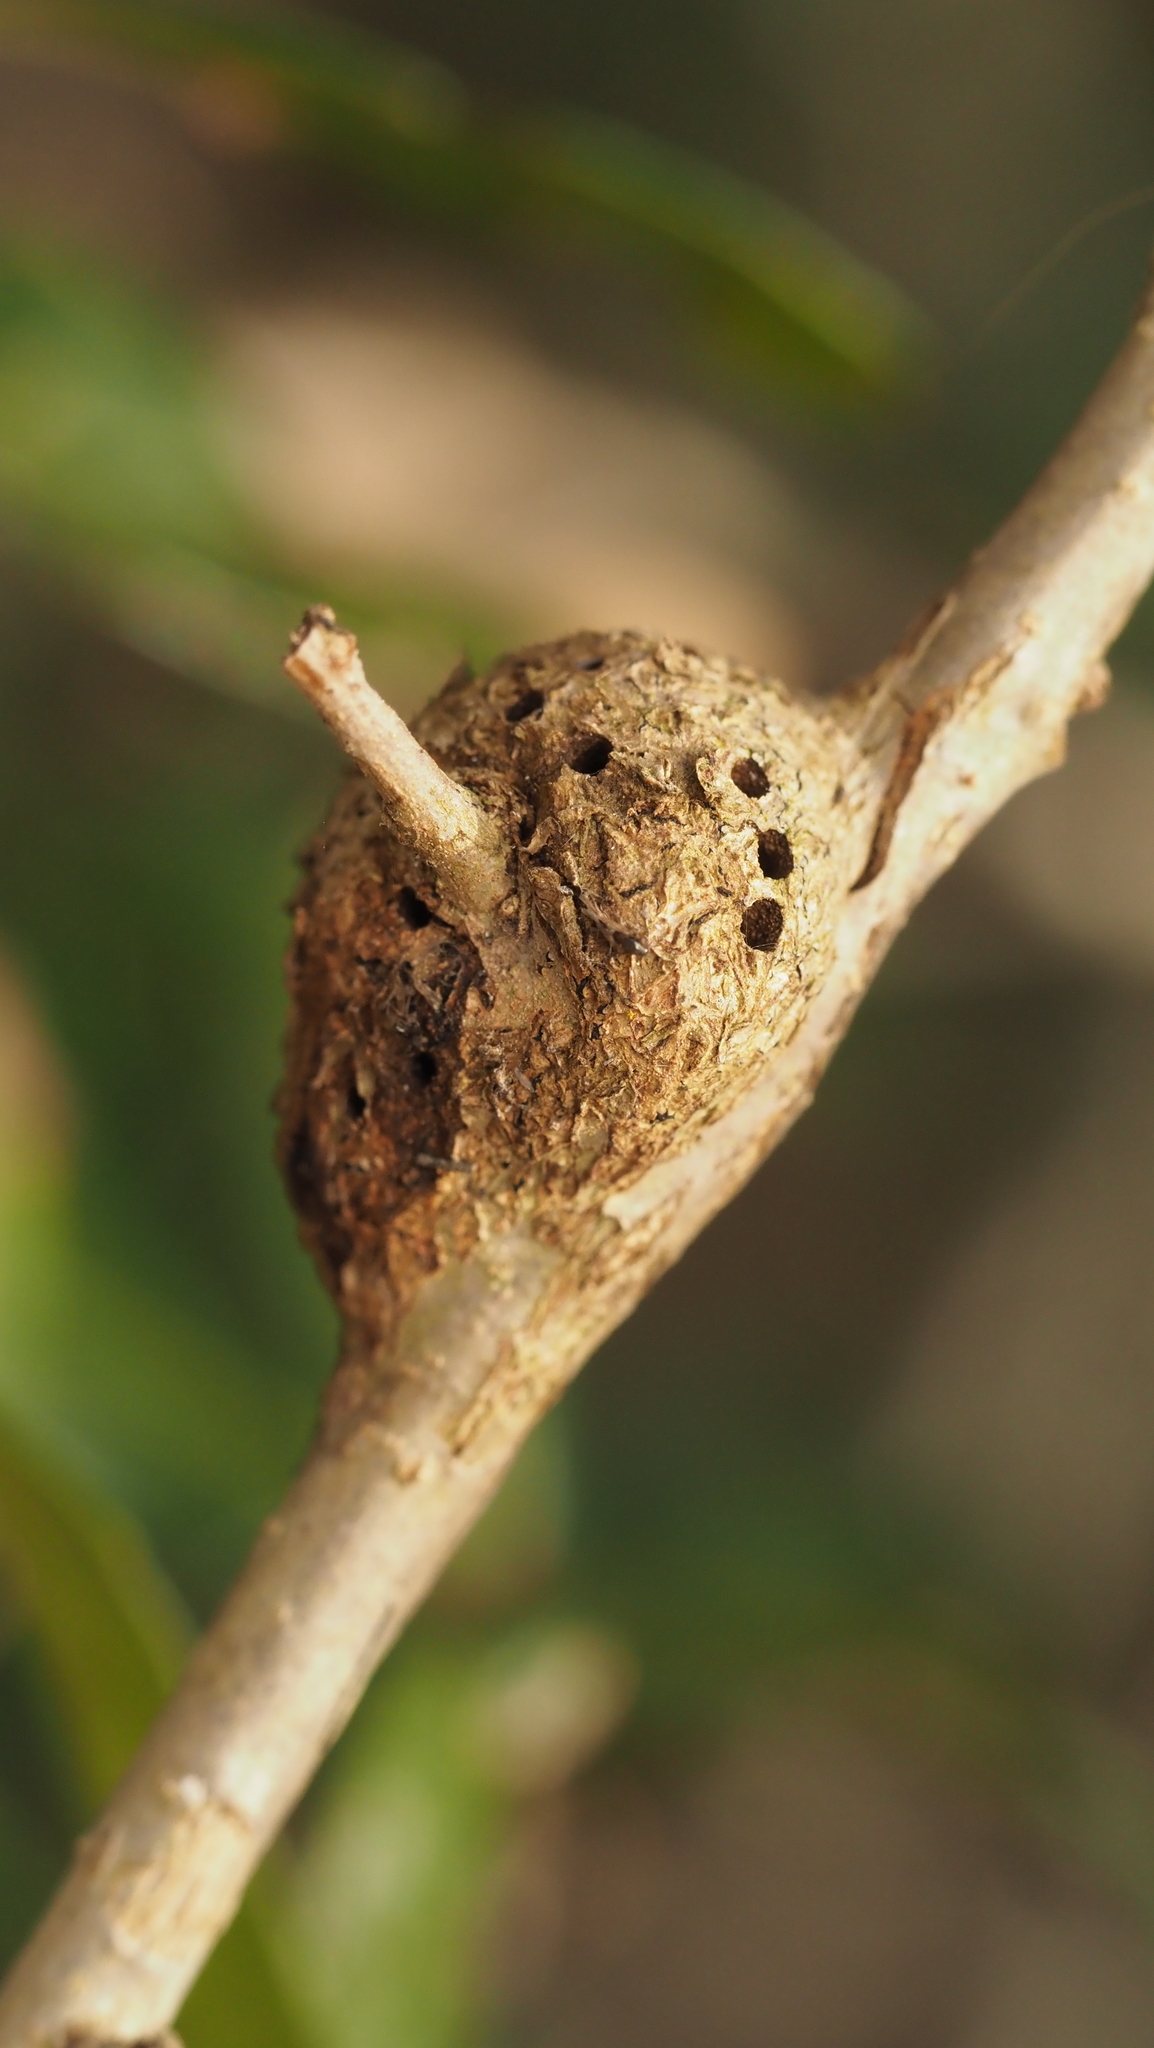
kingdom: Animalia
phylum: Arthropoda
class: Insecta
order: Hymenoptera
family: Cynipidae
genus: Callirhytis
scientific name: Callirhytis
